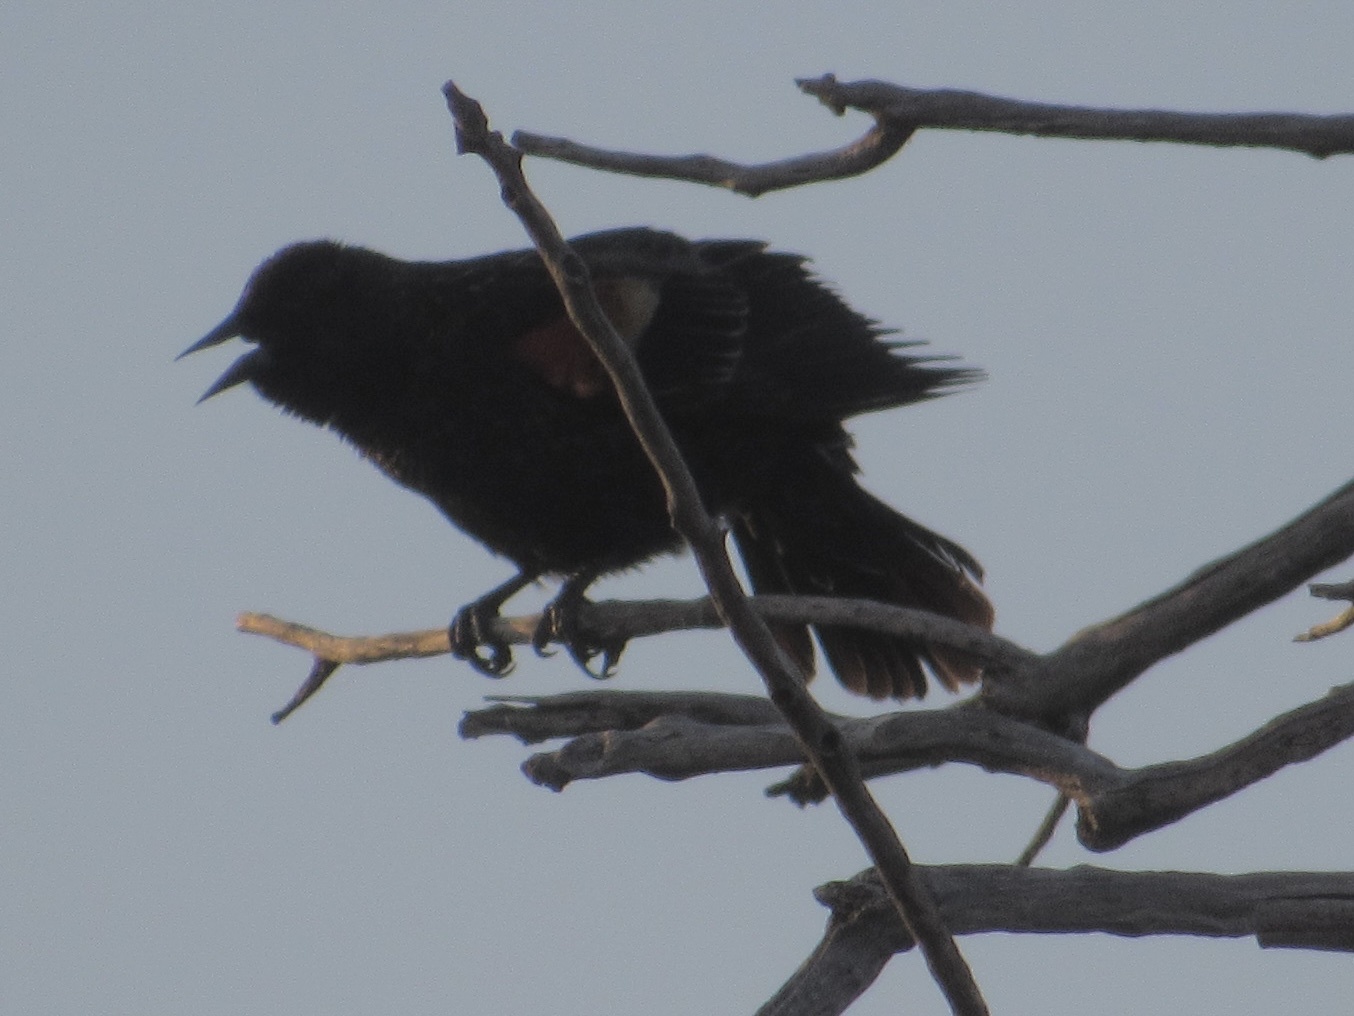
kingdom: Animalia
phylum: Chordata
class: Aves
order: Passeriformes
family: Icteridae
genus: Agelaius
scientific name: Agelaius phoeniceus
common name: Red-winged blackbird
